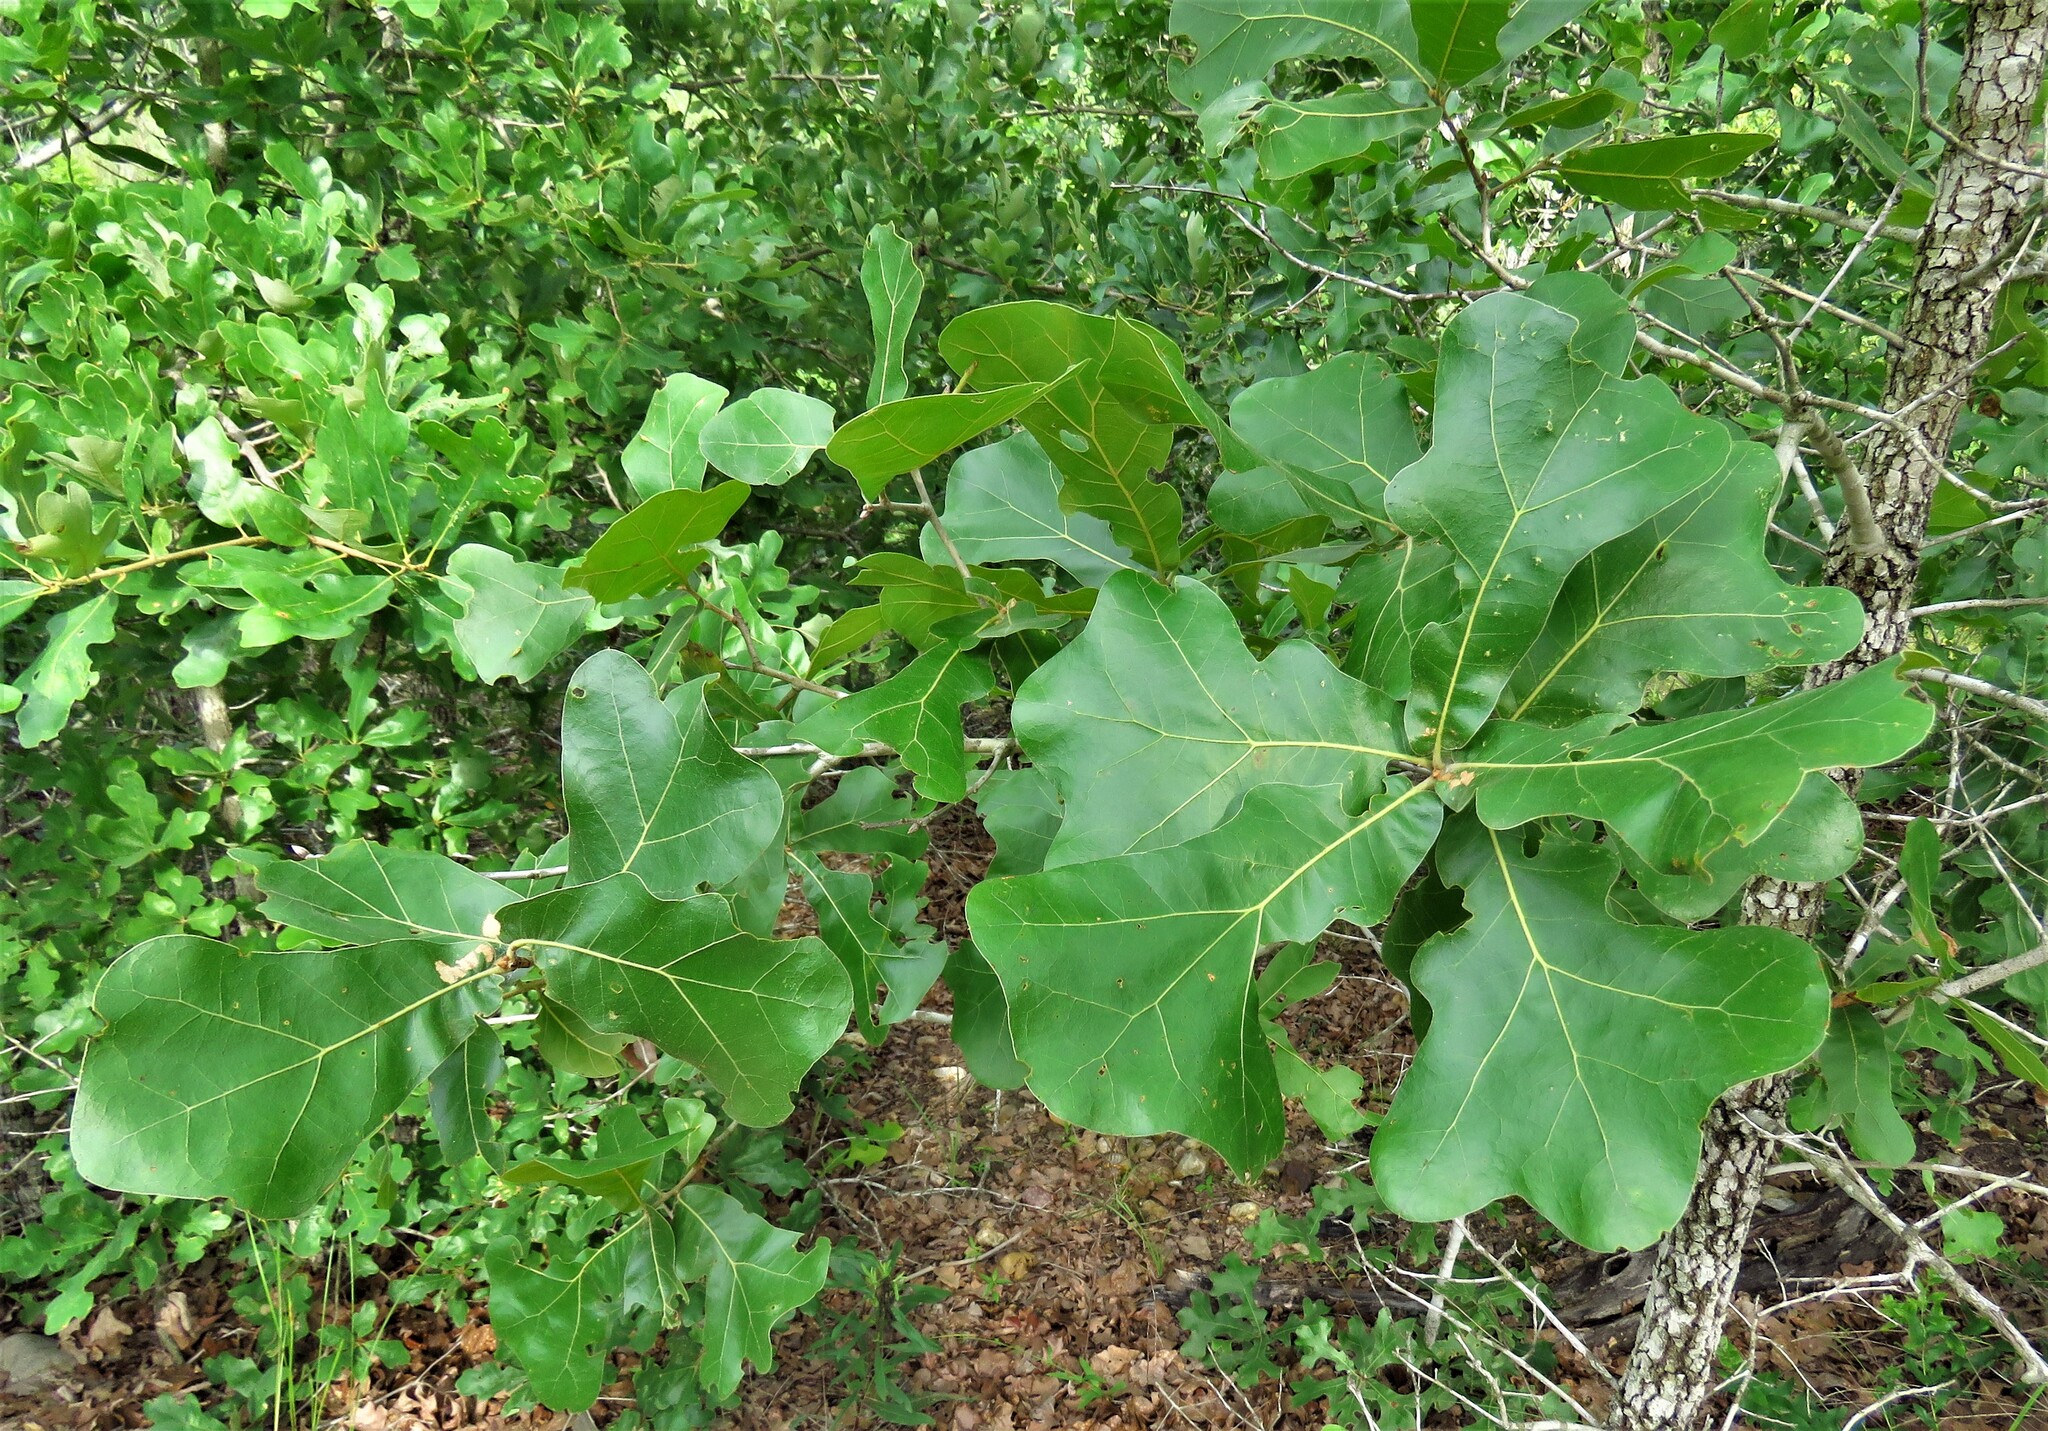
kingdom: Plantae
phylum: Tracheophyta
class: Magnoliopsida
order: Fagales
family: Fagaceae
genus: Quercus
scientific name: Quercus marilandica
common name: Blackjack oak
